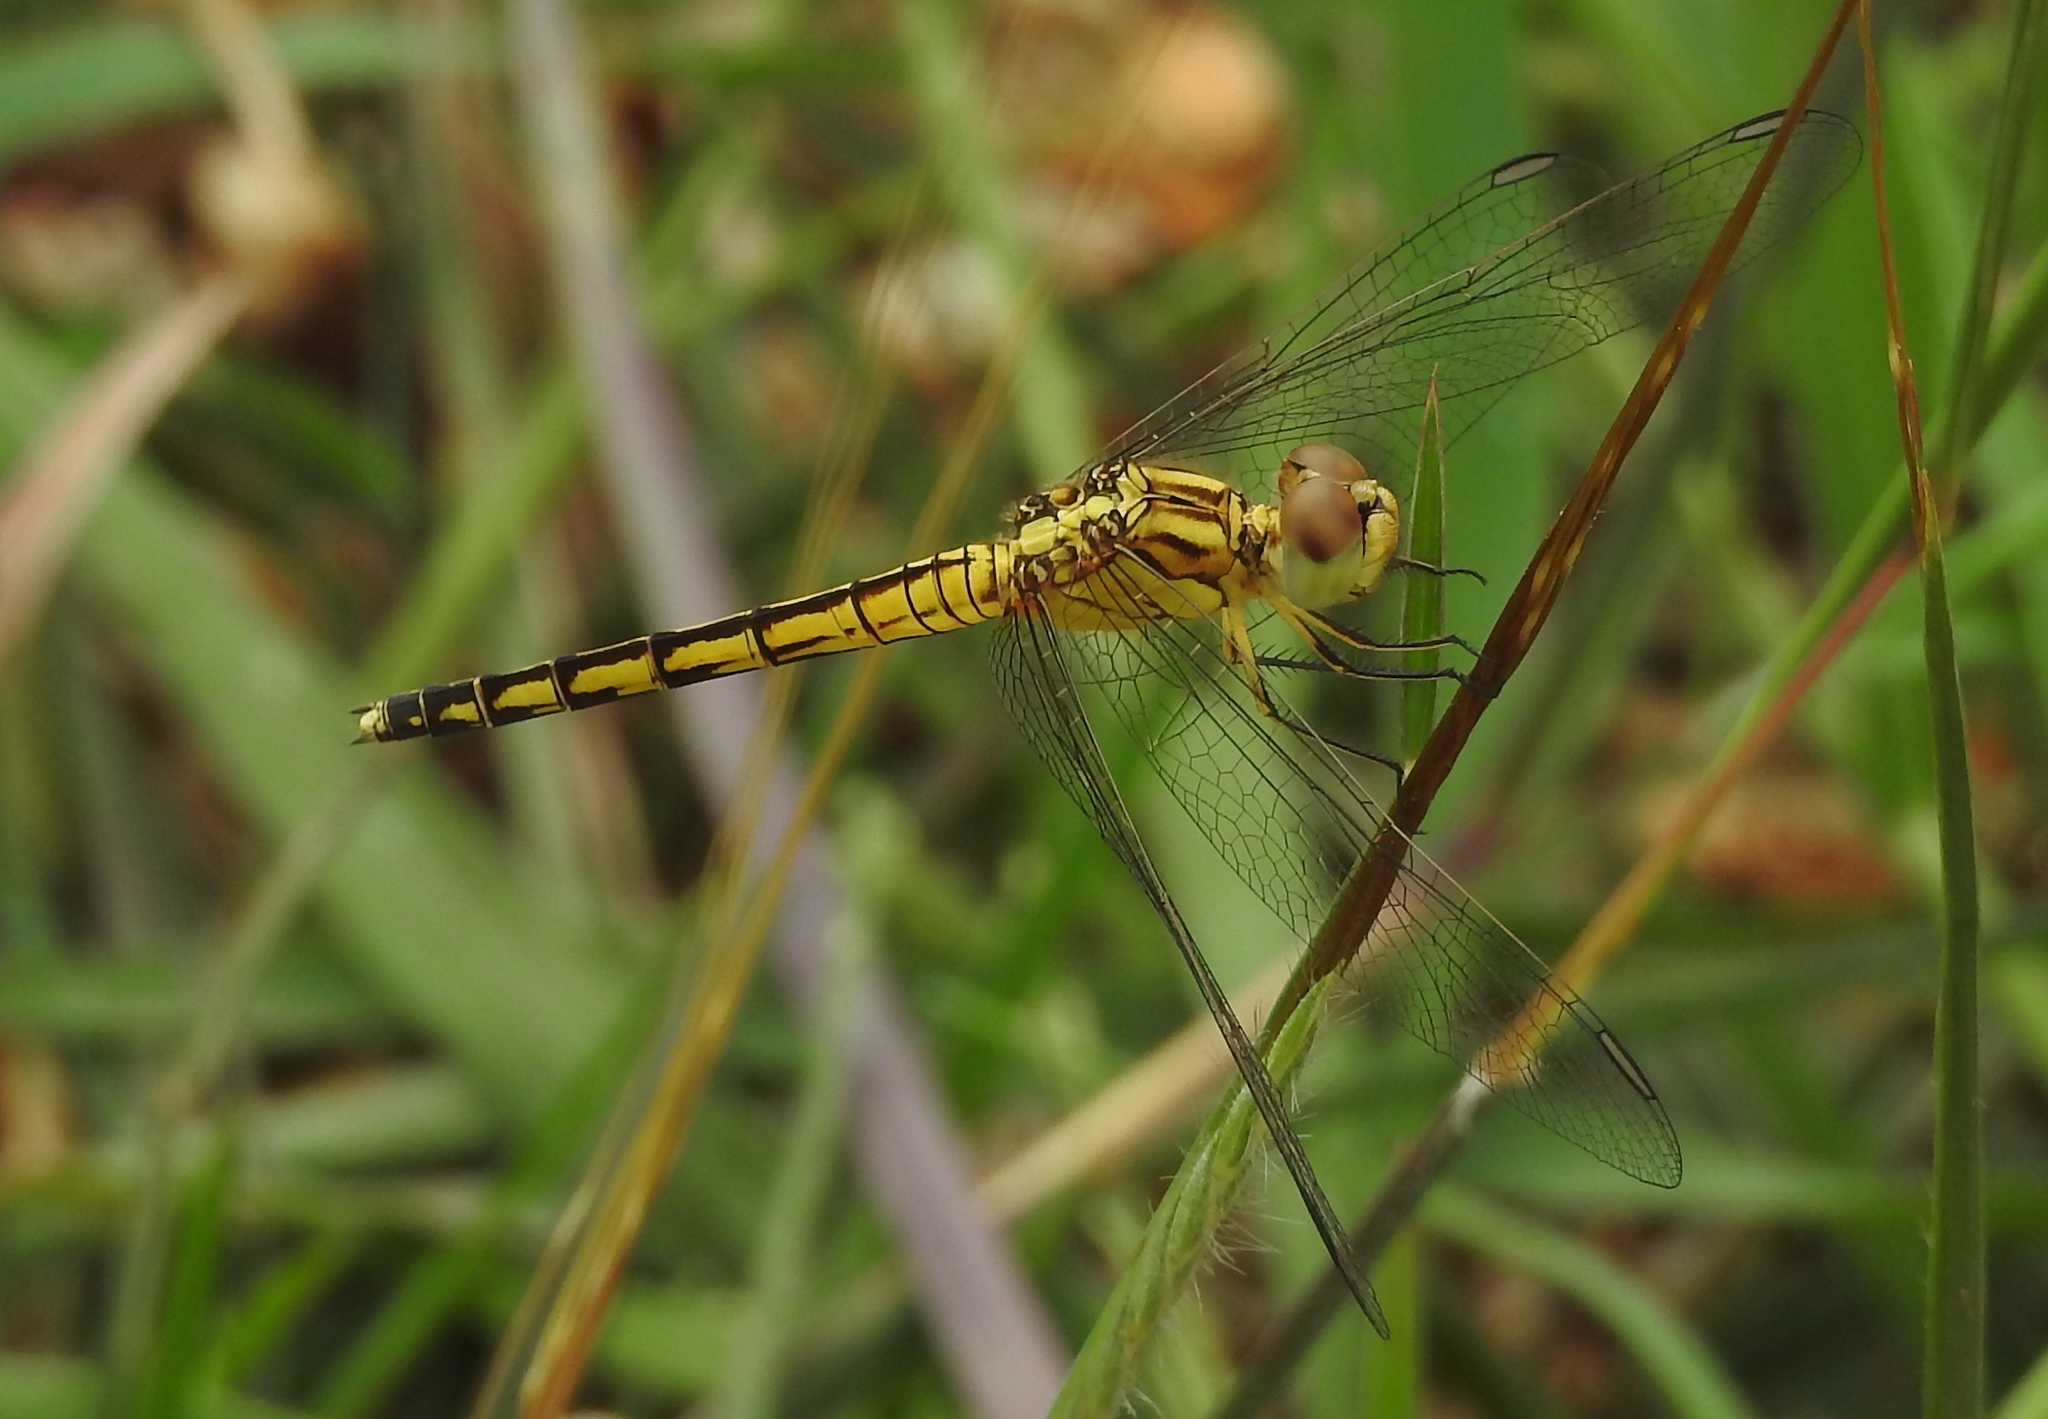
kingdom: Animalia
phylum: Arthropoda
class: Insecta
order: Odonata
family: Libellulidae
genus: Indothemis
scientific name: Indothemis carnatica
